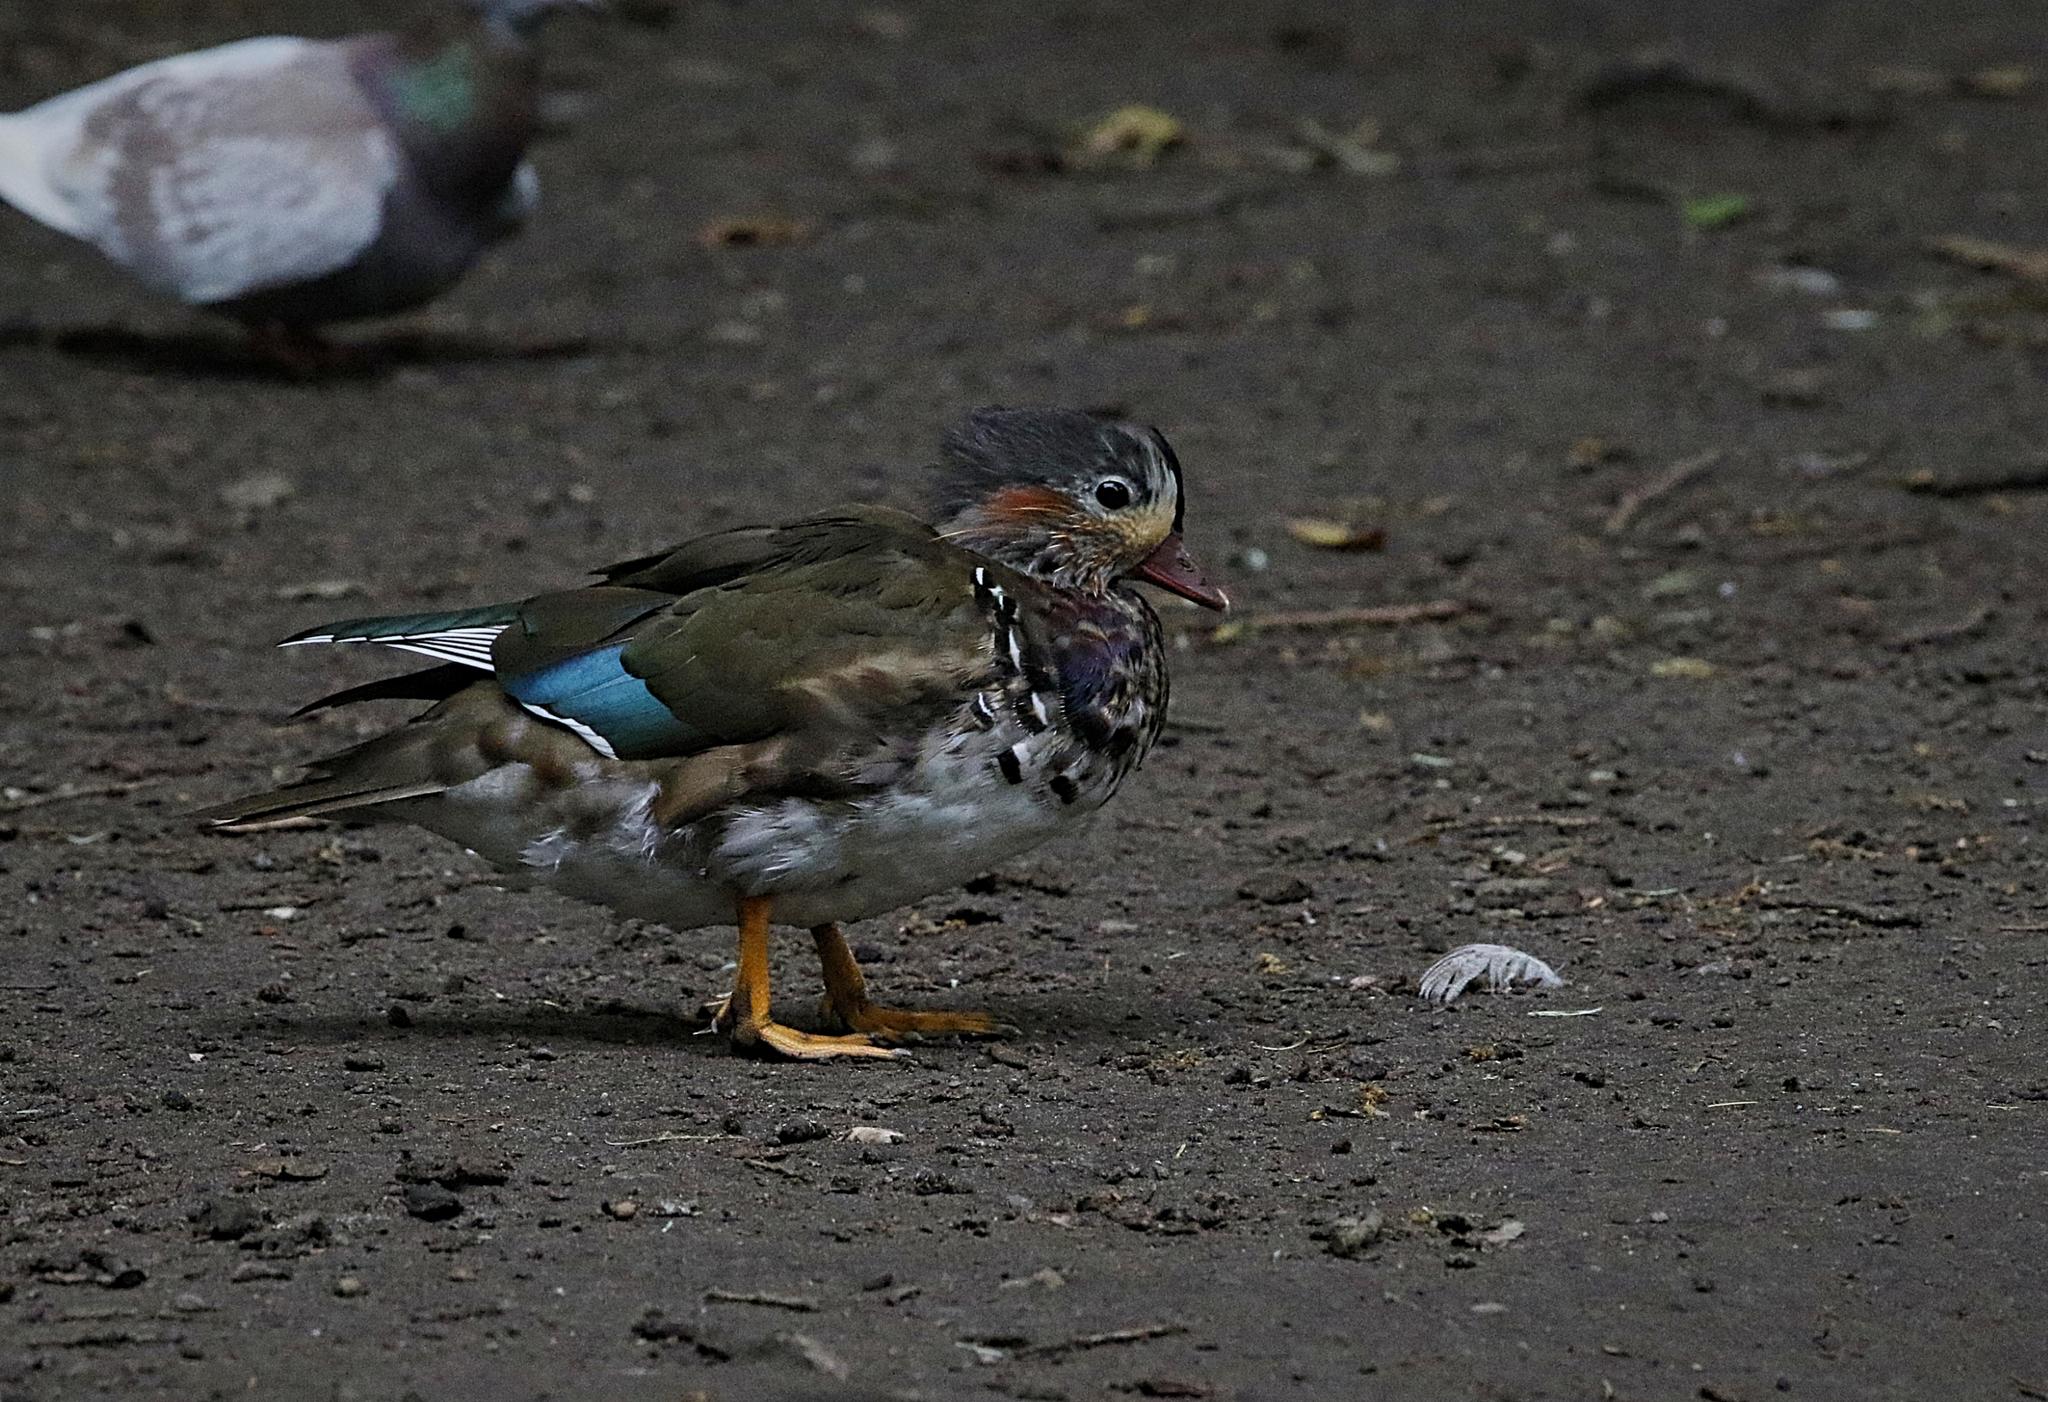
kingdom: Animalia
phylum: Chordata
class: Aves
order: Anseriformes
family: Anatidae
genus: Aix
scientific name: Aix galericulata
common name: Mandarin duck
